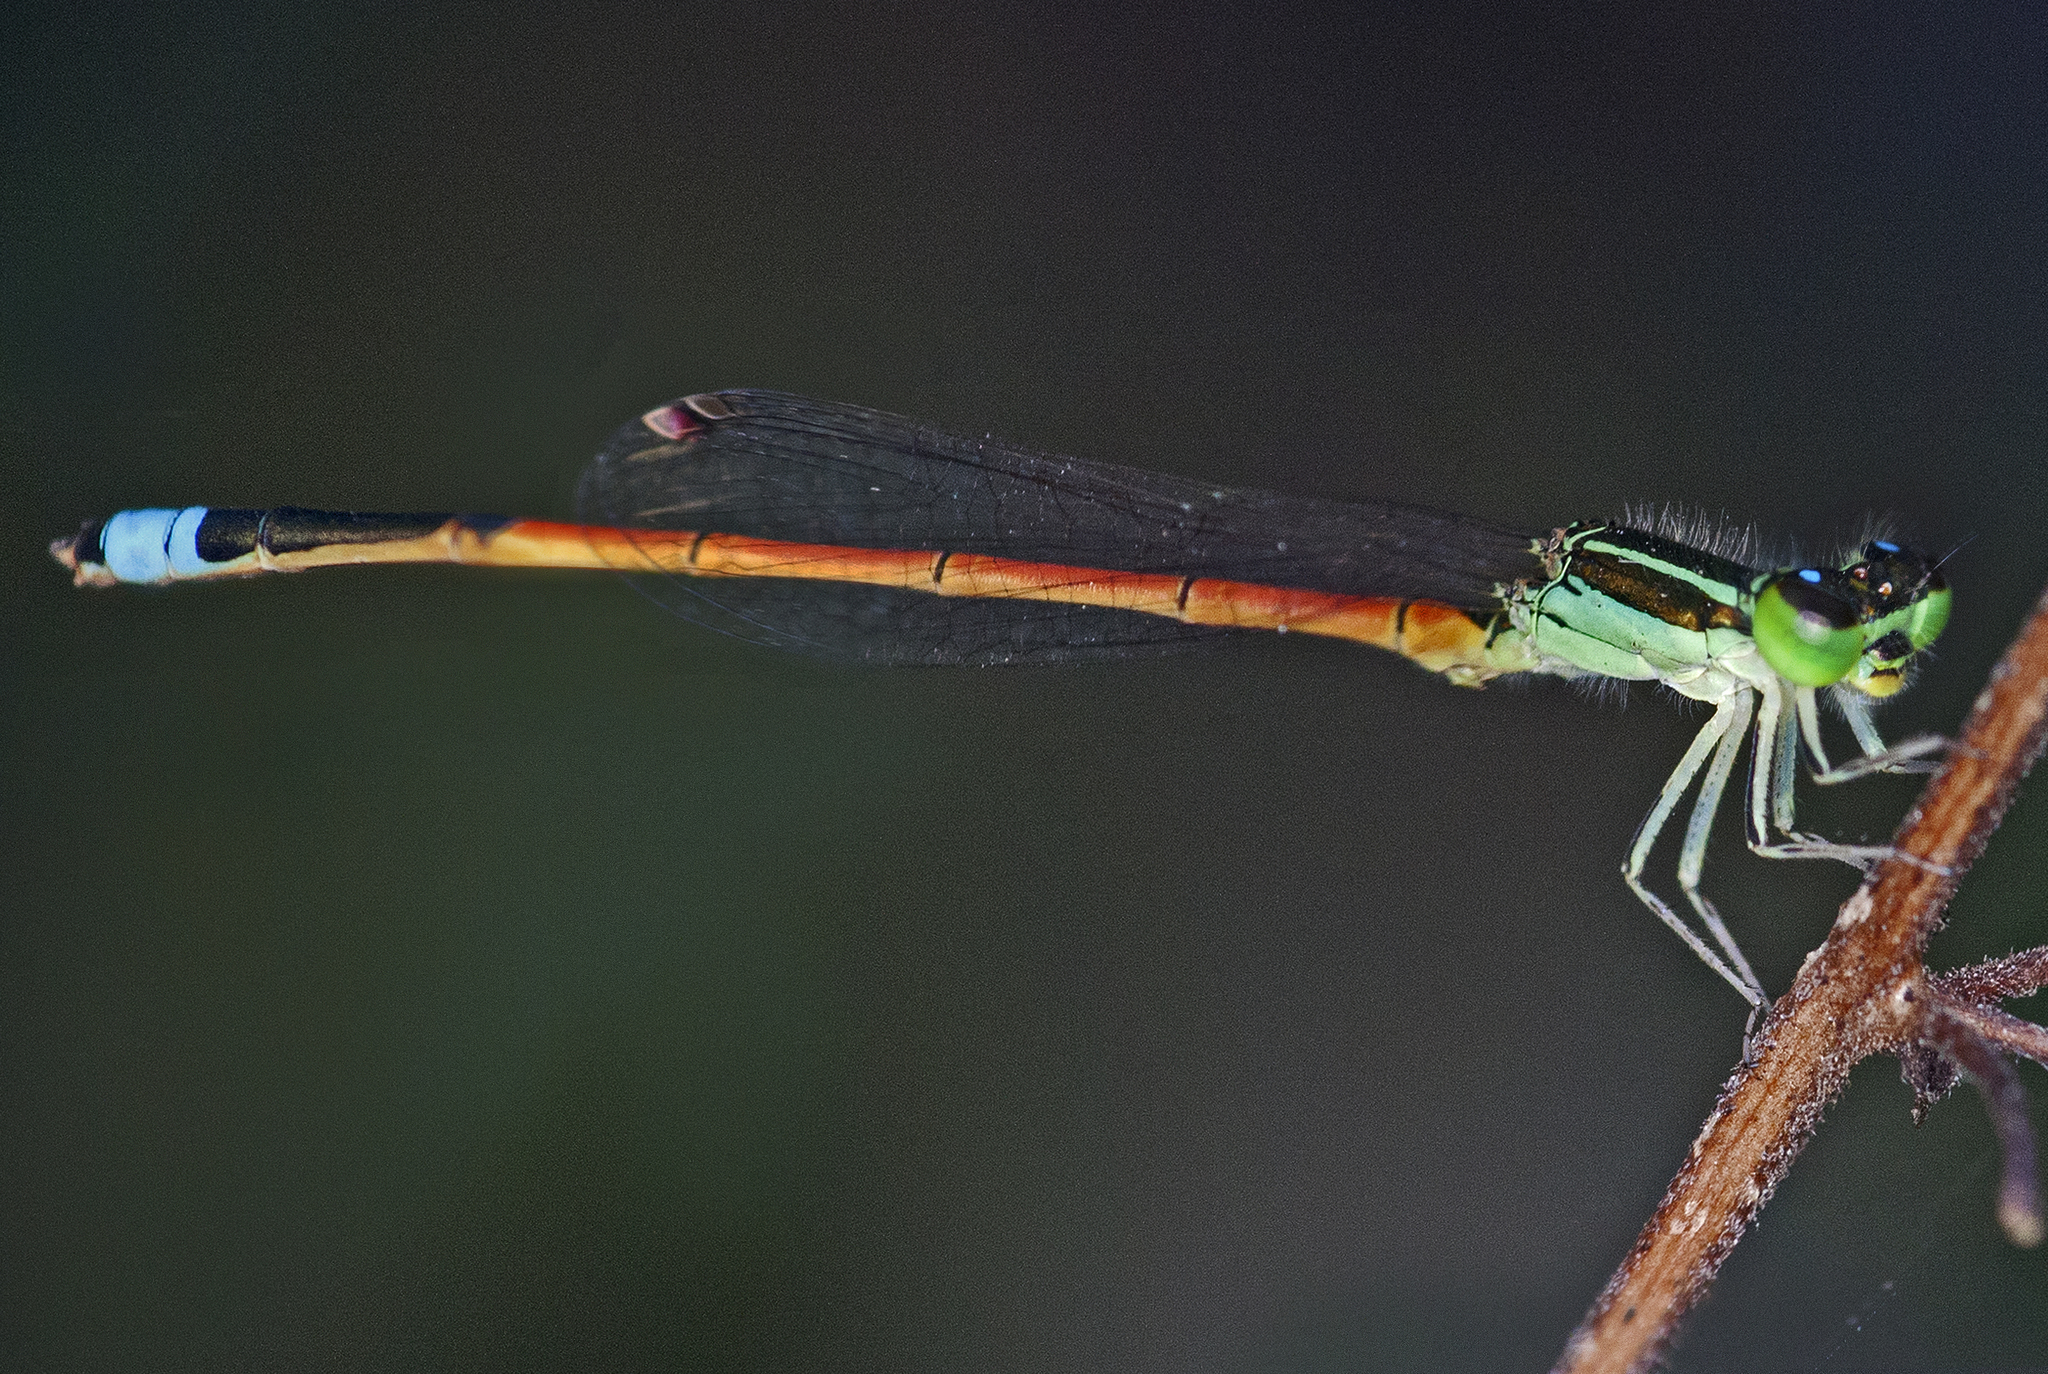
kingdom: Animalia
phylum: Arthropoda
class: Insecta
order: Odonata
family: Coenagrionidae
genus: Ischnura
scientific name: Ischnura aurora
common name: Gossamer damselfly
